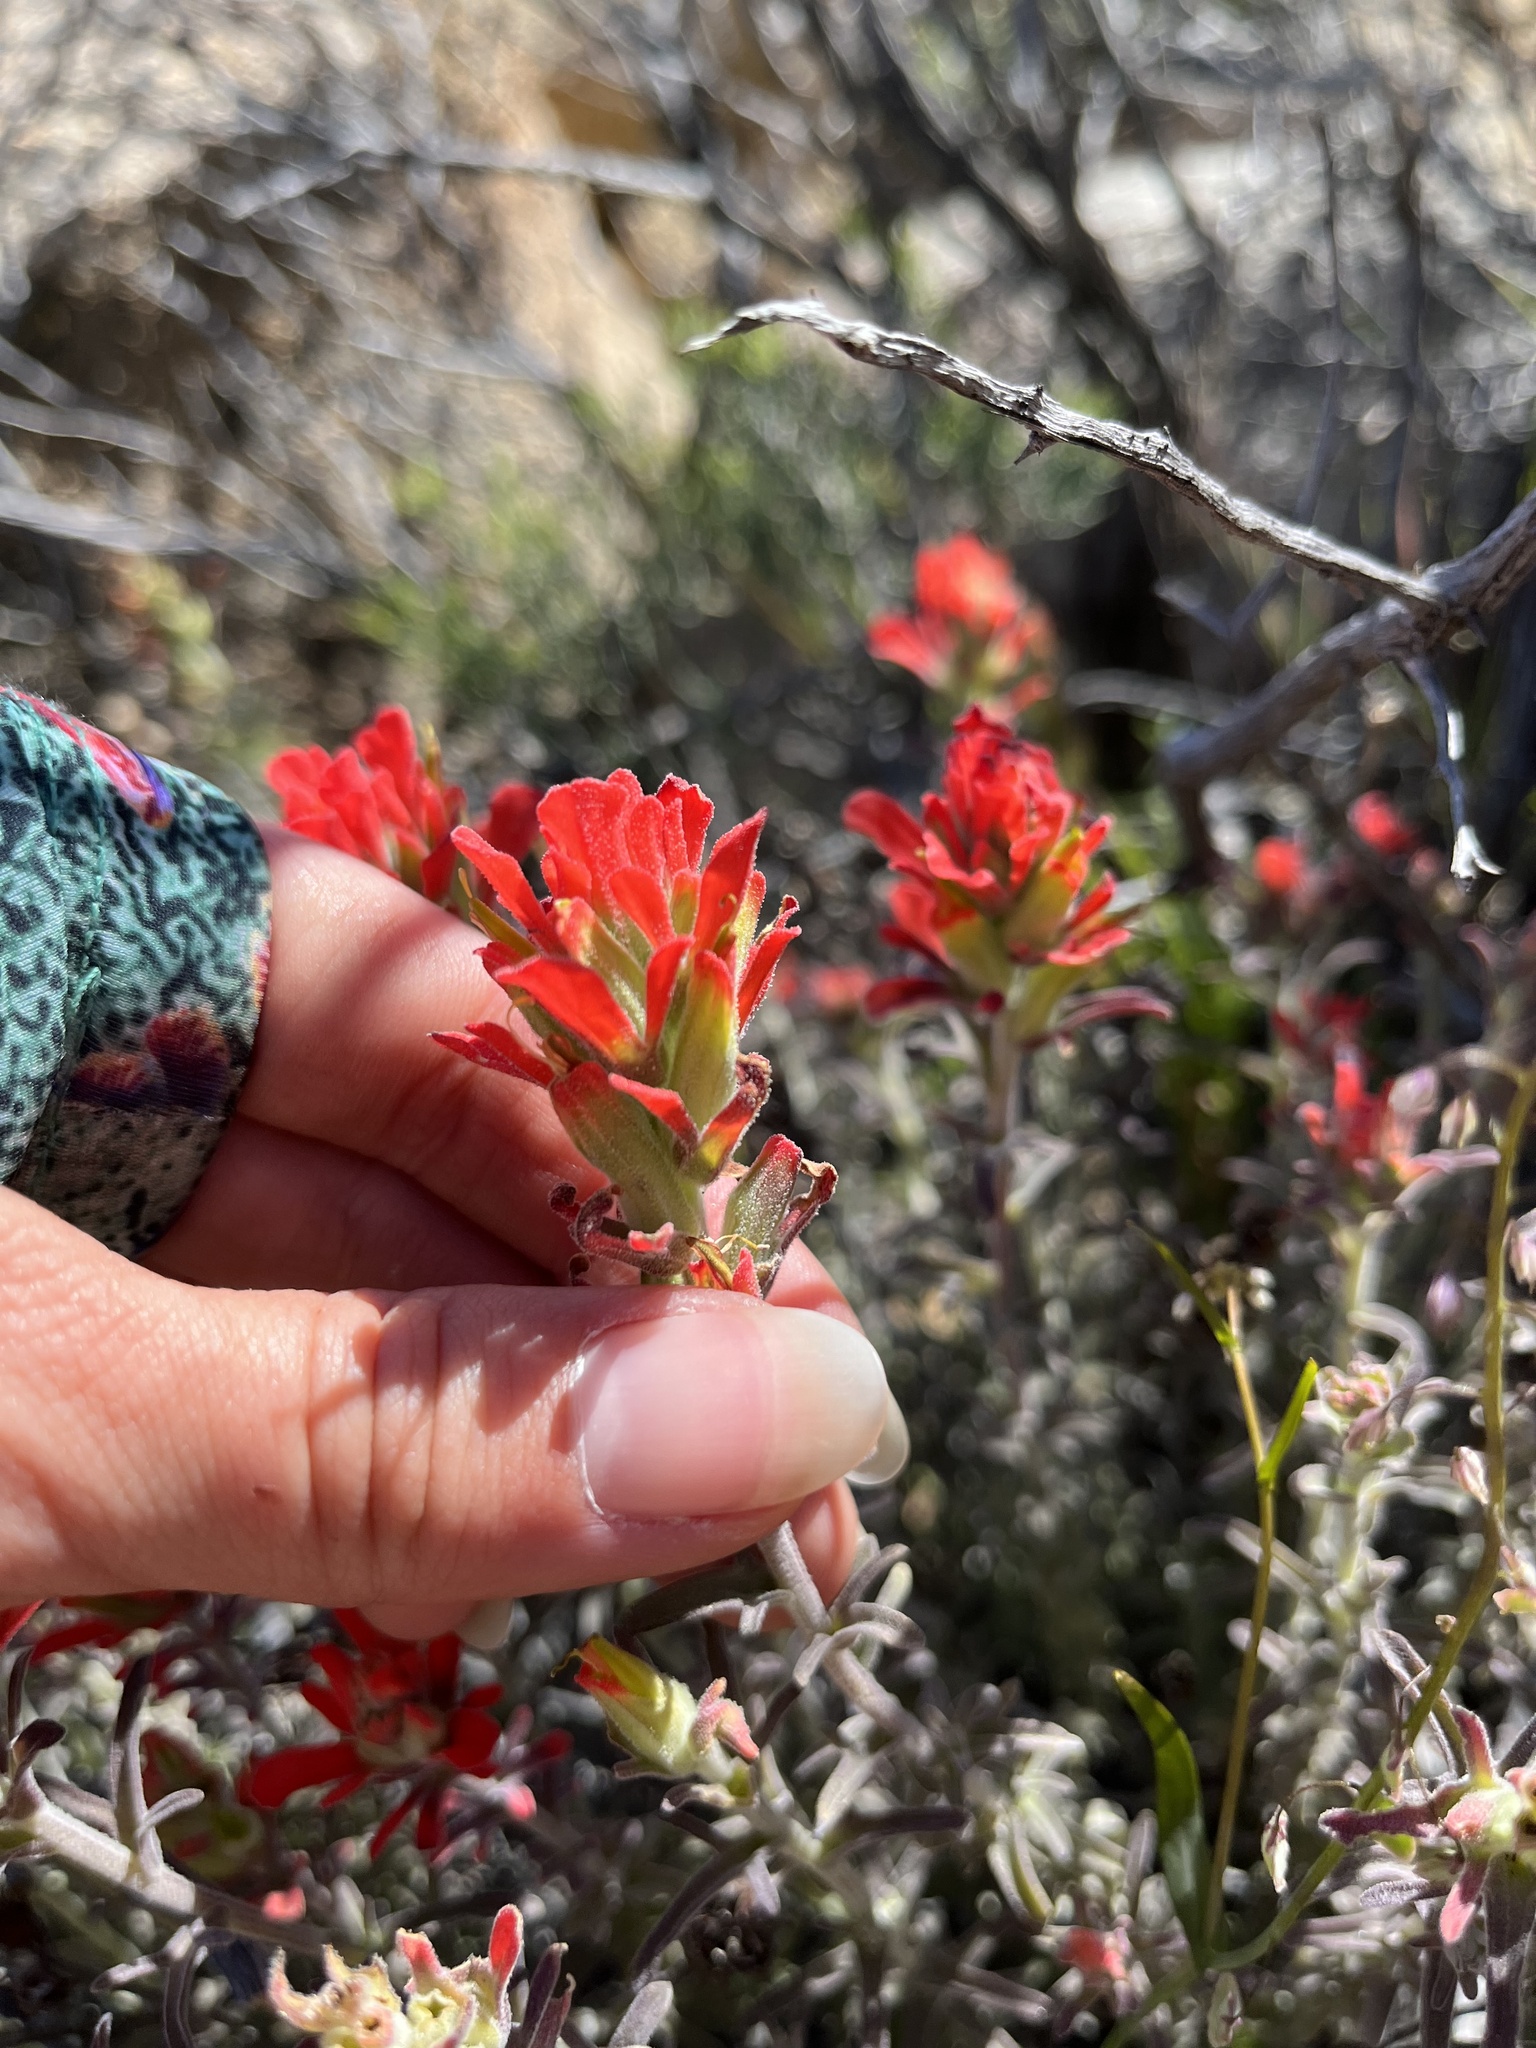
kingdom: Plantae
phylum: Tracheophyta
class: Magnoliopsida
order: Lamiales
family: Orobanchaceae
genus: Castilleja
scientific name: Castilleja foliolosa
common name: Woolly indian paintbrush
